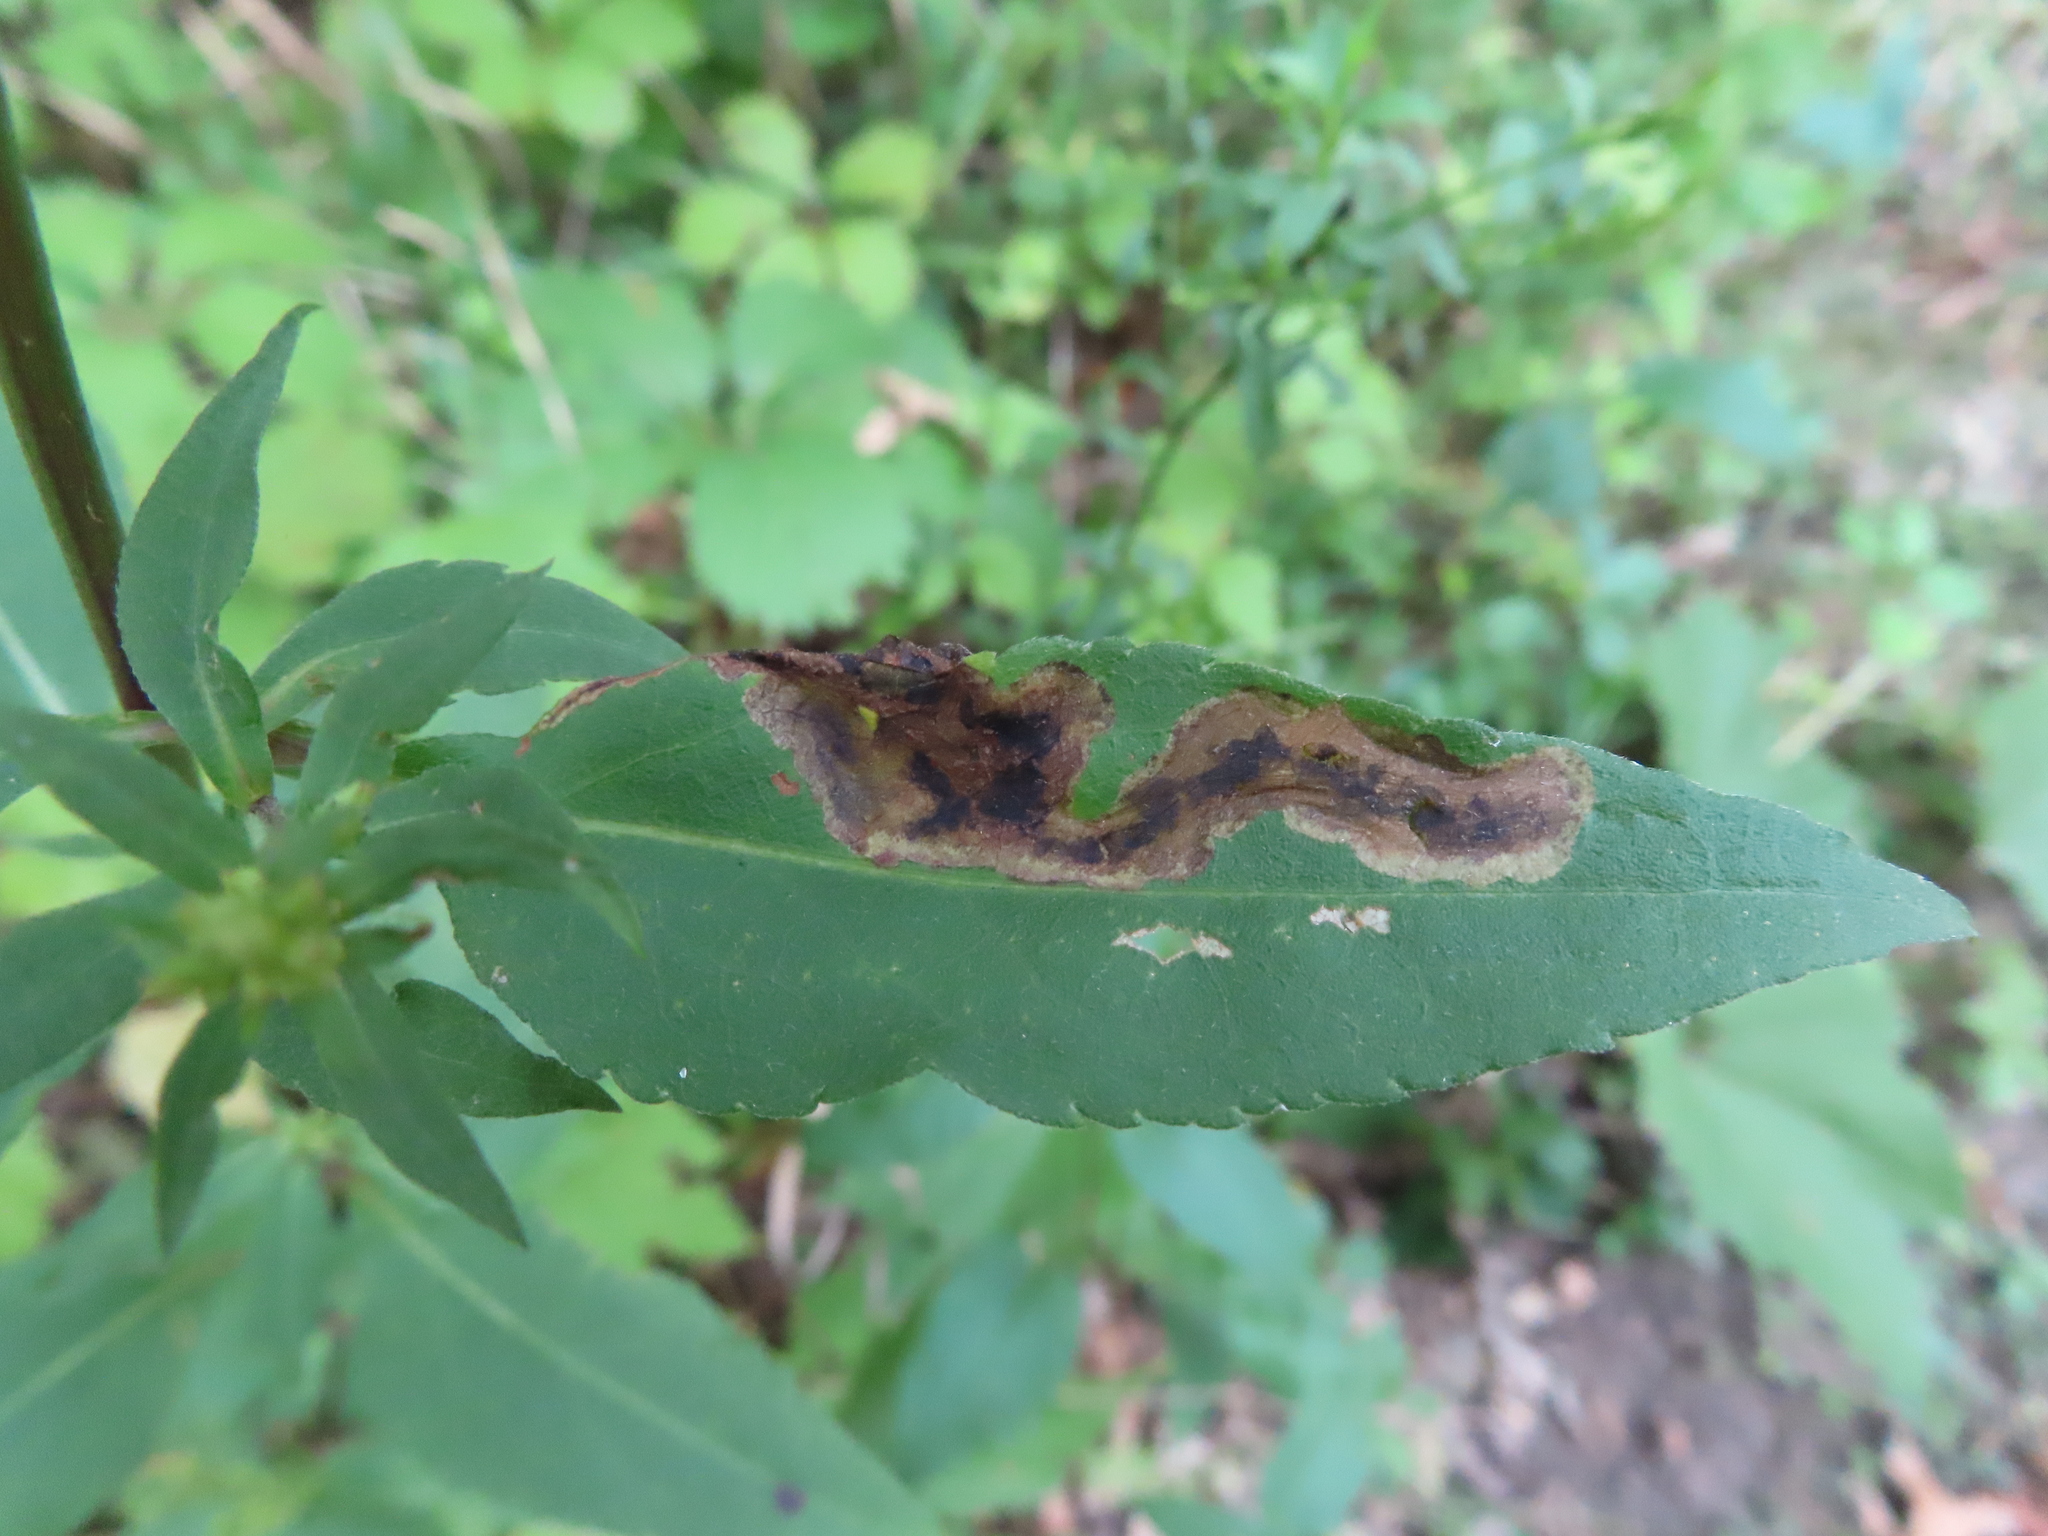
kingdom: Animalia
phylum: Arthropoda
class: Insecta
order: Diptera
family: Agromyzidae
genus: Nemorimyza
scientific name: Nemorimyza posticata
